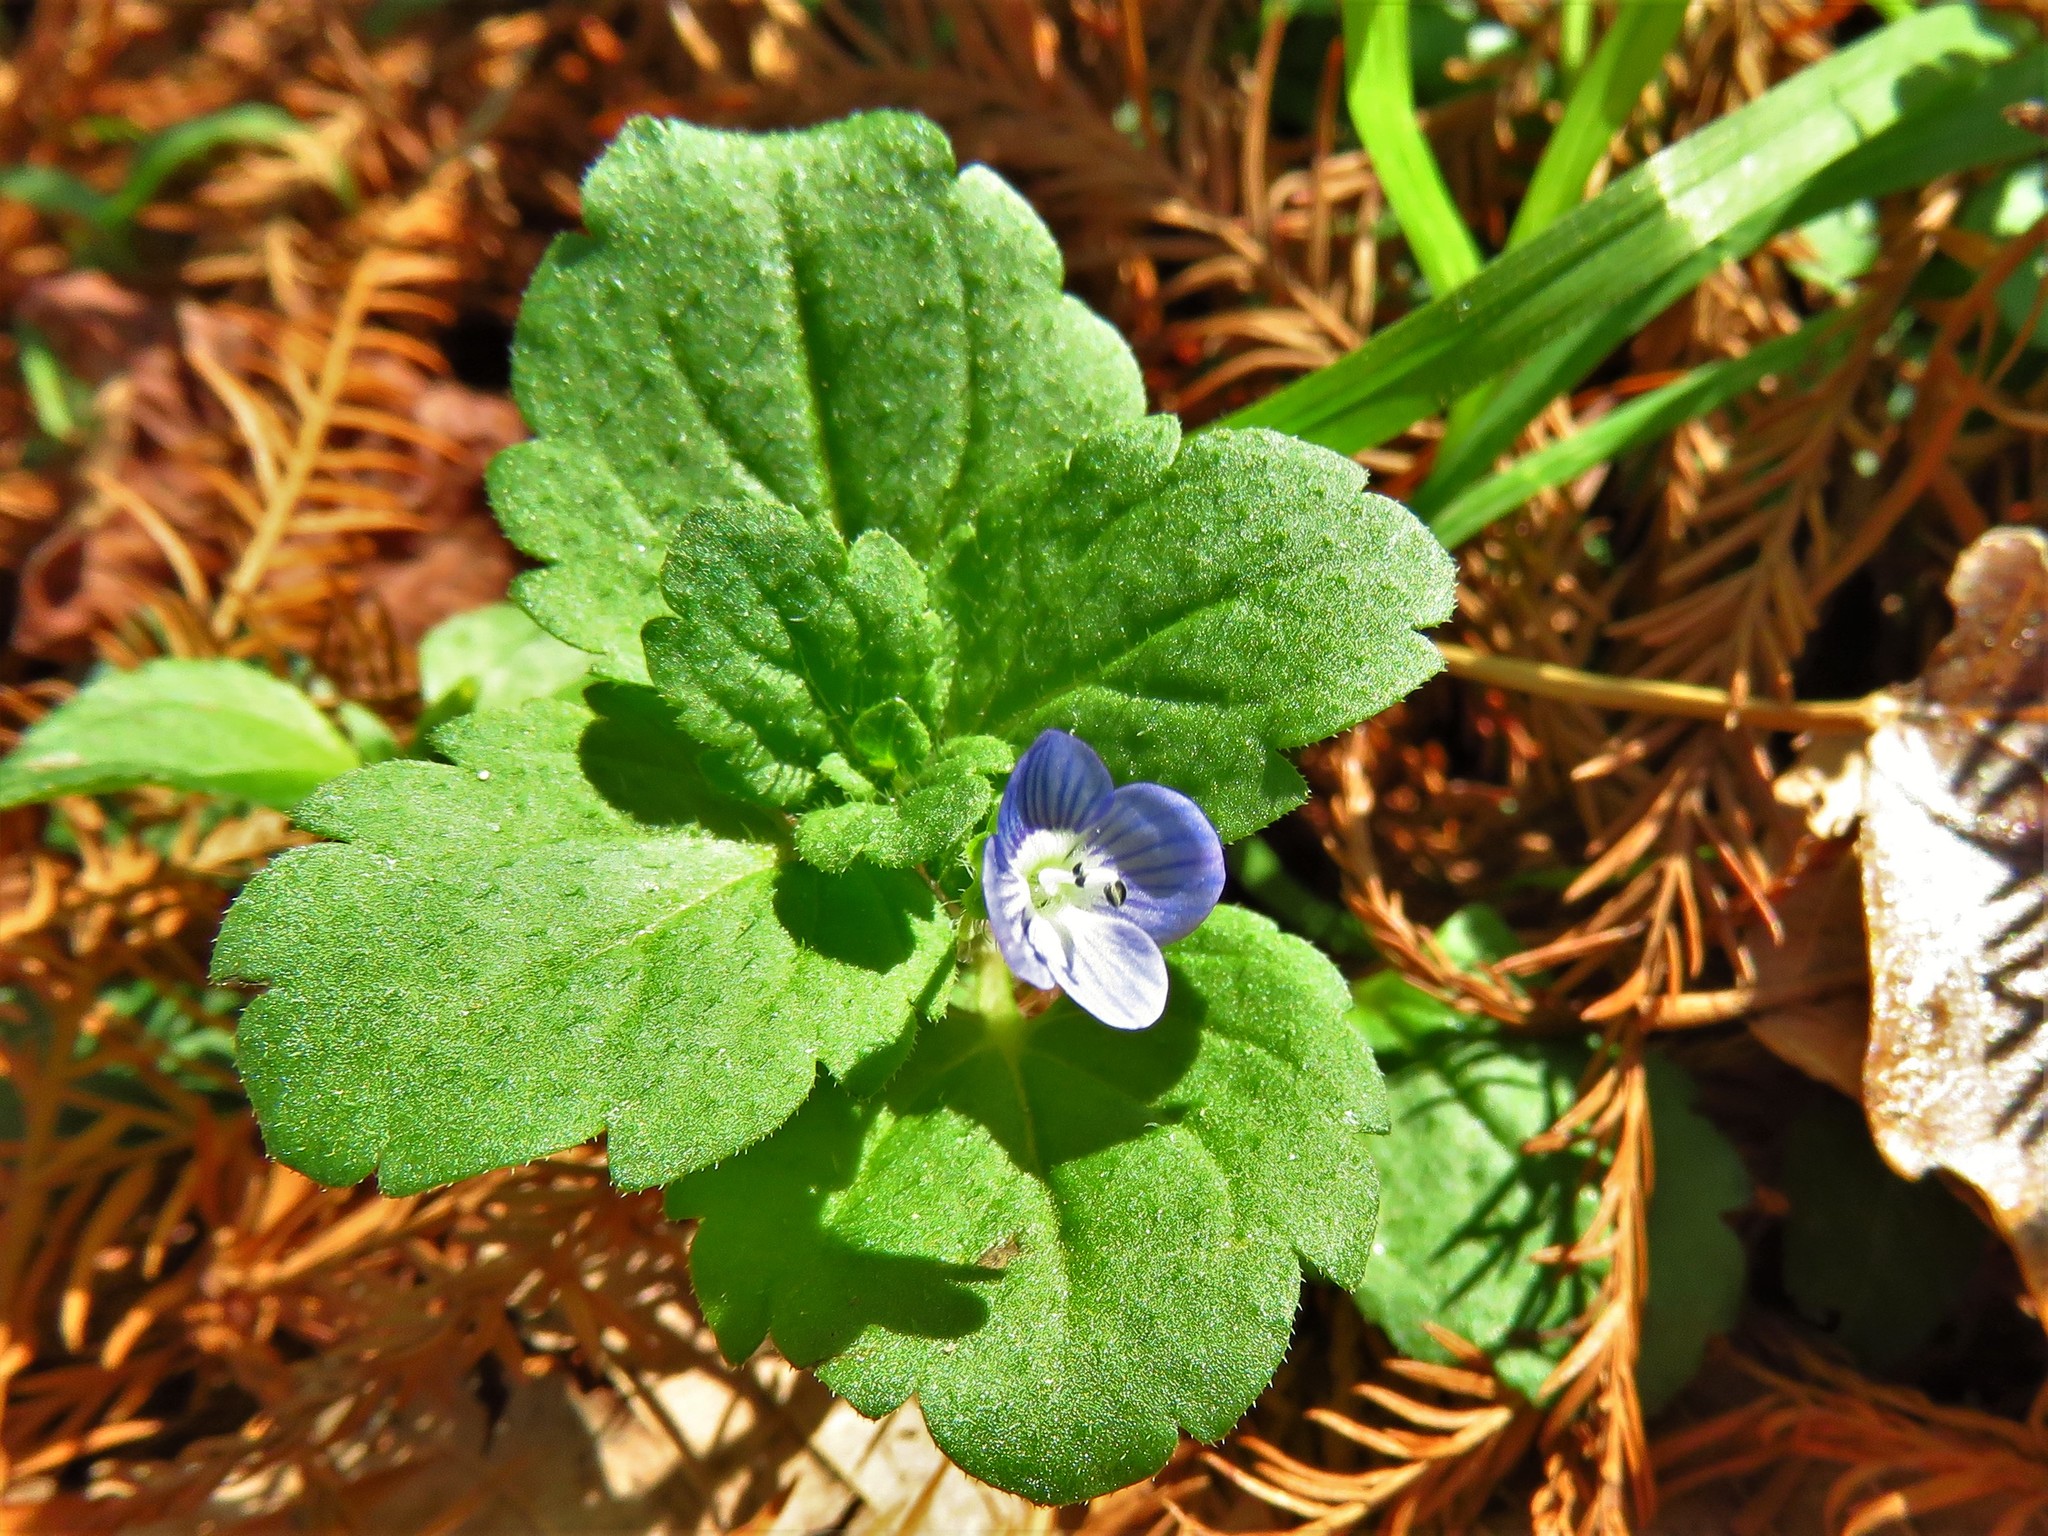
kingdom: Plantae
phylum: Tracheophyta
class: Magnoliopsida
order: Lamiales
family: Plantaginaceae
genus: Veronica
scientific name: Veronica persica
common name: Common field-speedwell
